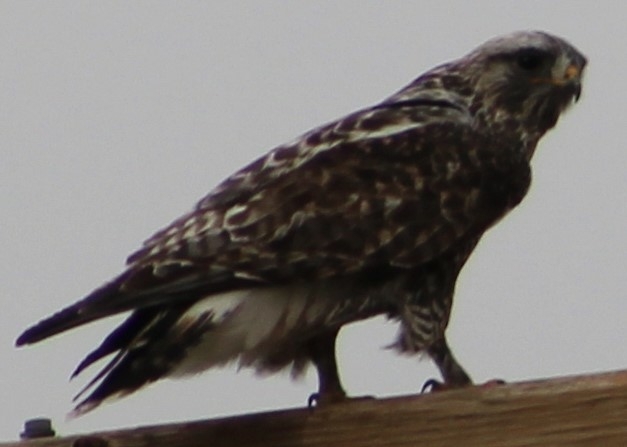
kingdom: Animalia
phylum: Chordata
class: Aves
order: Accipitriformes
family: Accipitridae
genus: Buteo
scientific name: Buteo lagopus
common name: Rough-legged buzzard
